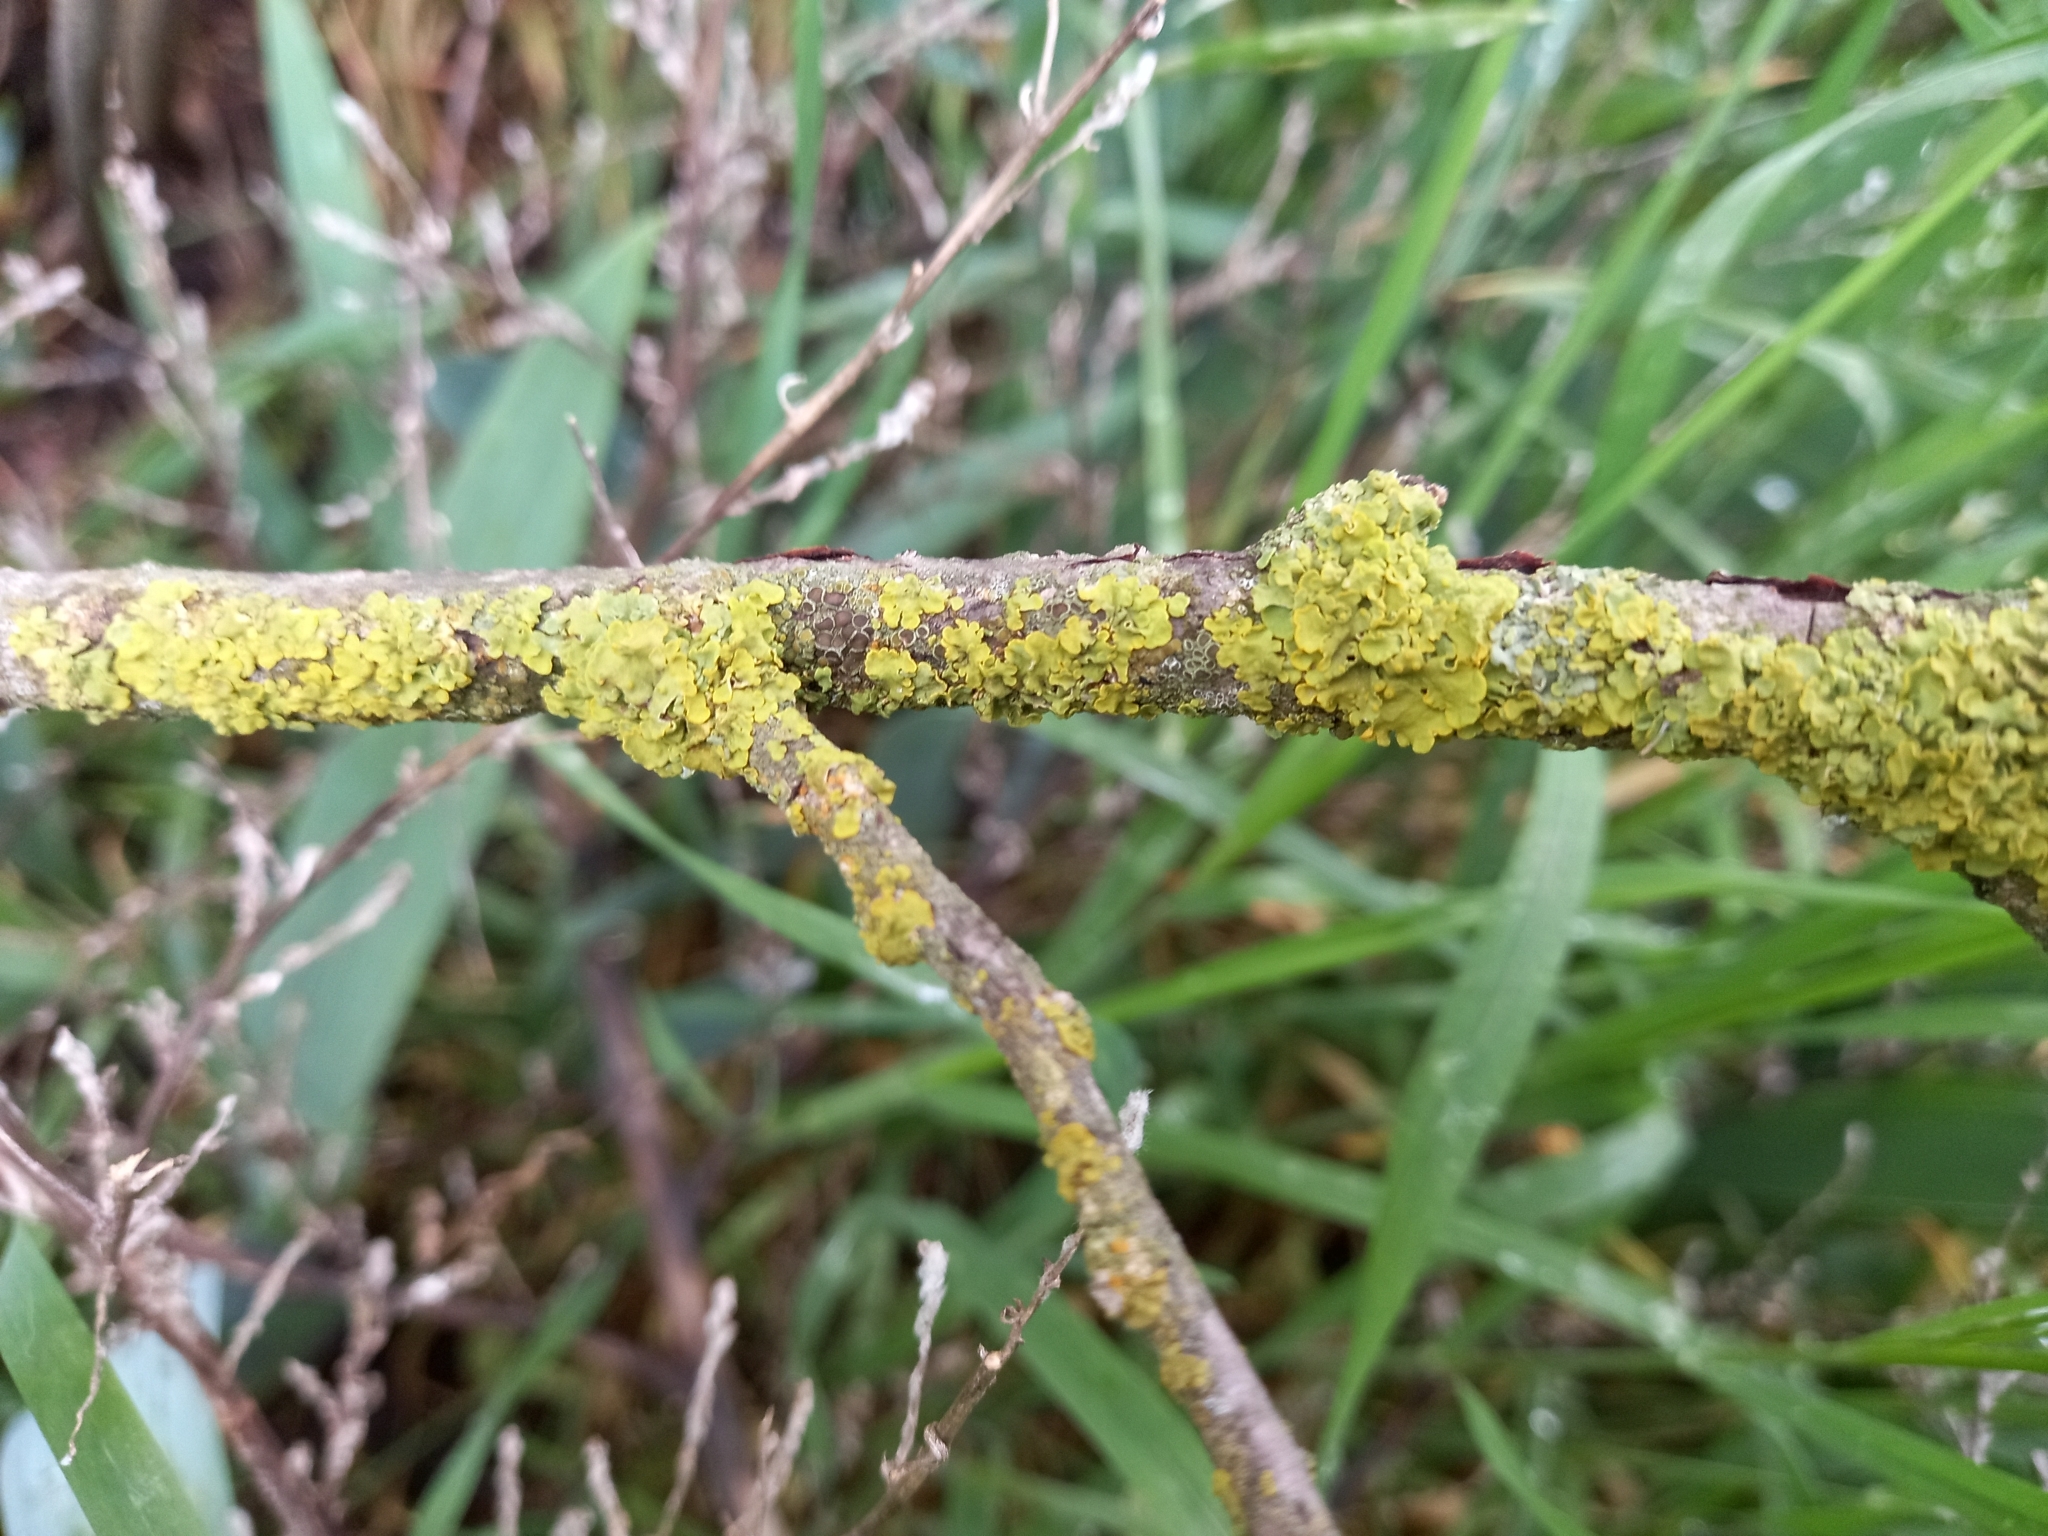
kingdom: Fungi
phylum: Ascomycota
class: Lecanoromycetes
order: Teloschistales
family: Teloschistaceae
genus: Xanthoria
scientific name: Xanthoria parietina
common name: Common orange lichen
